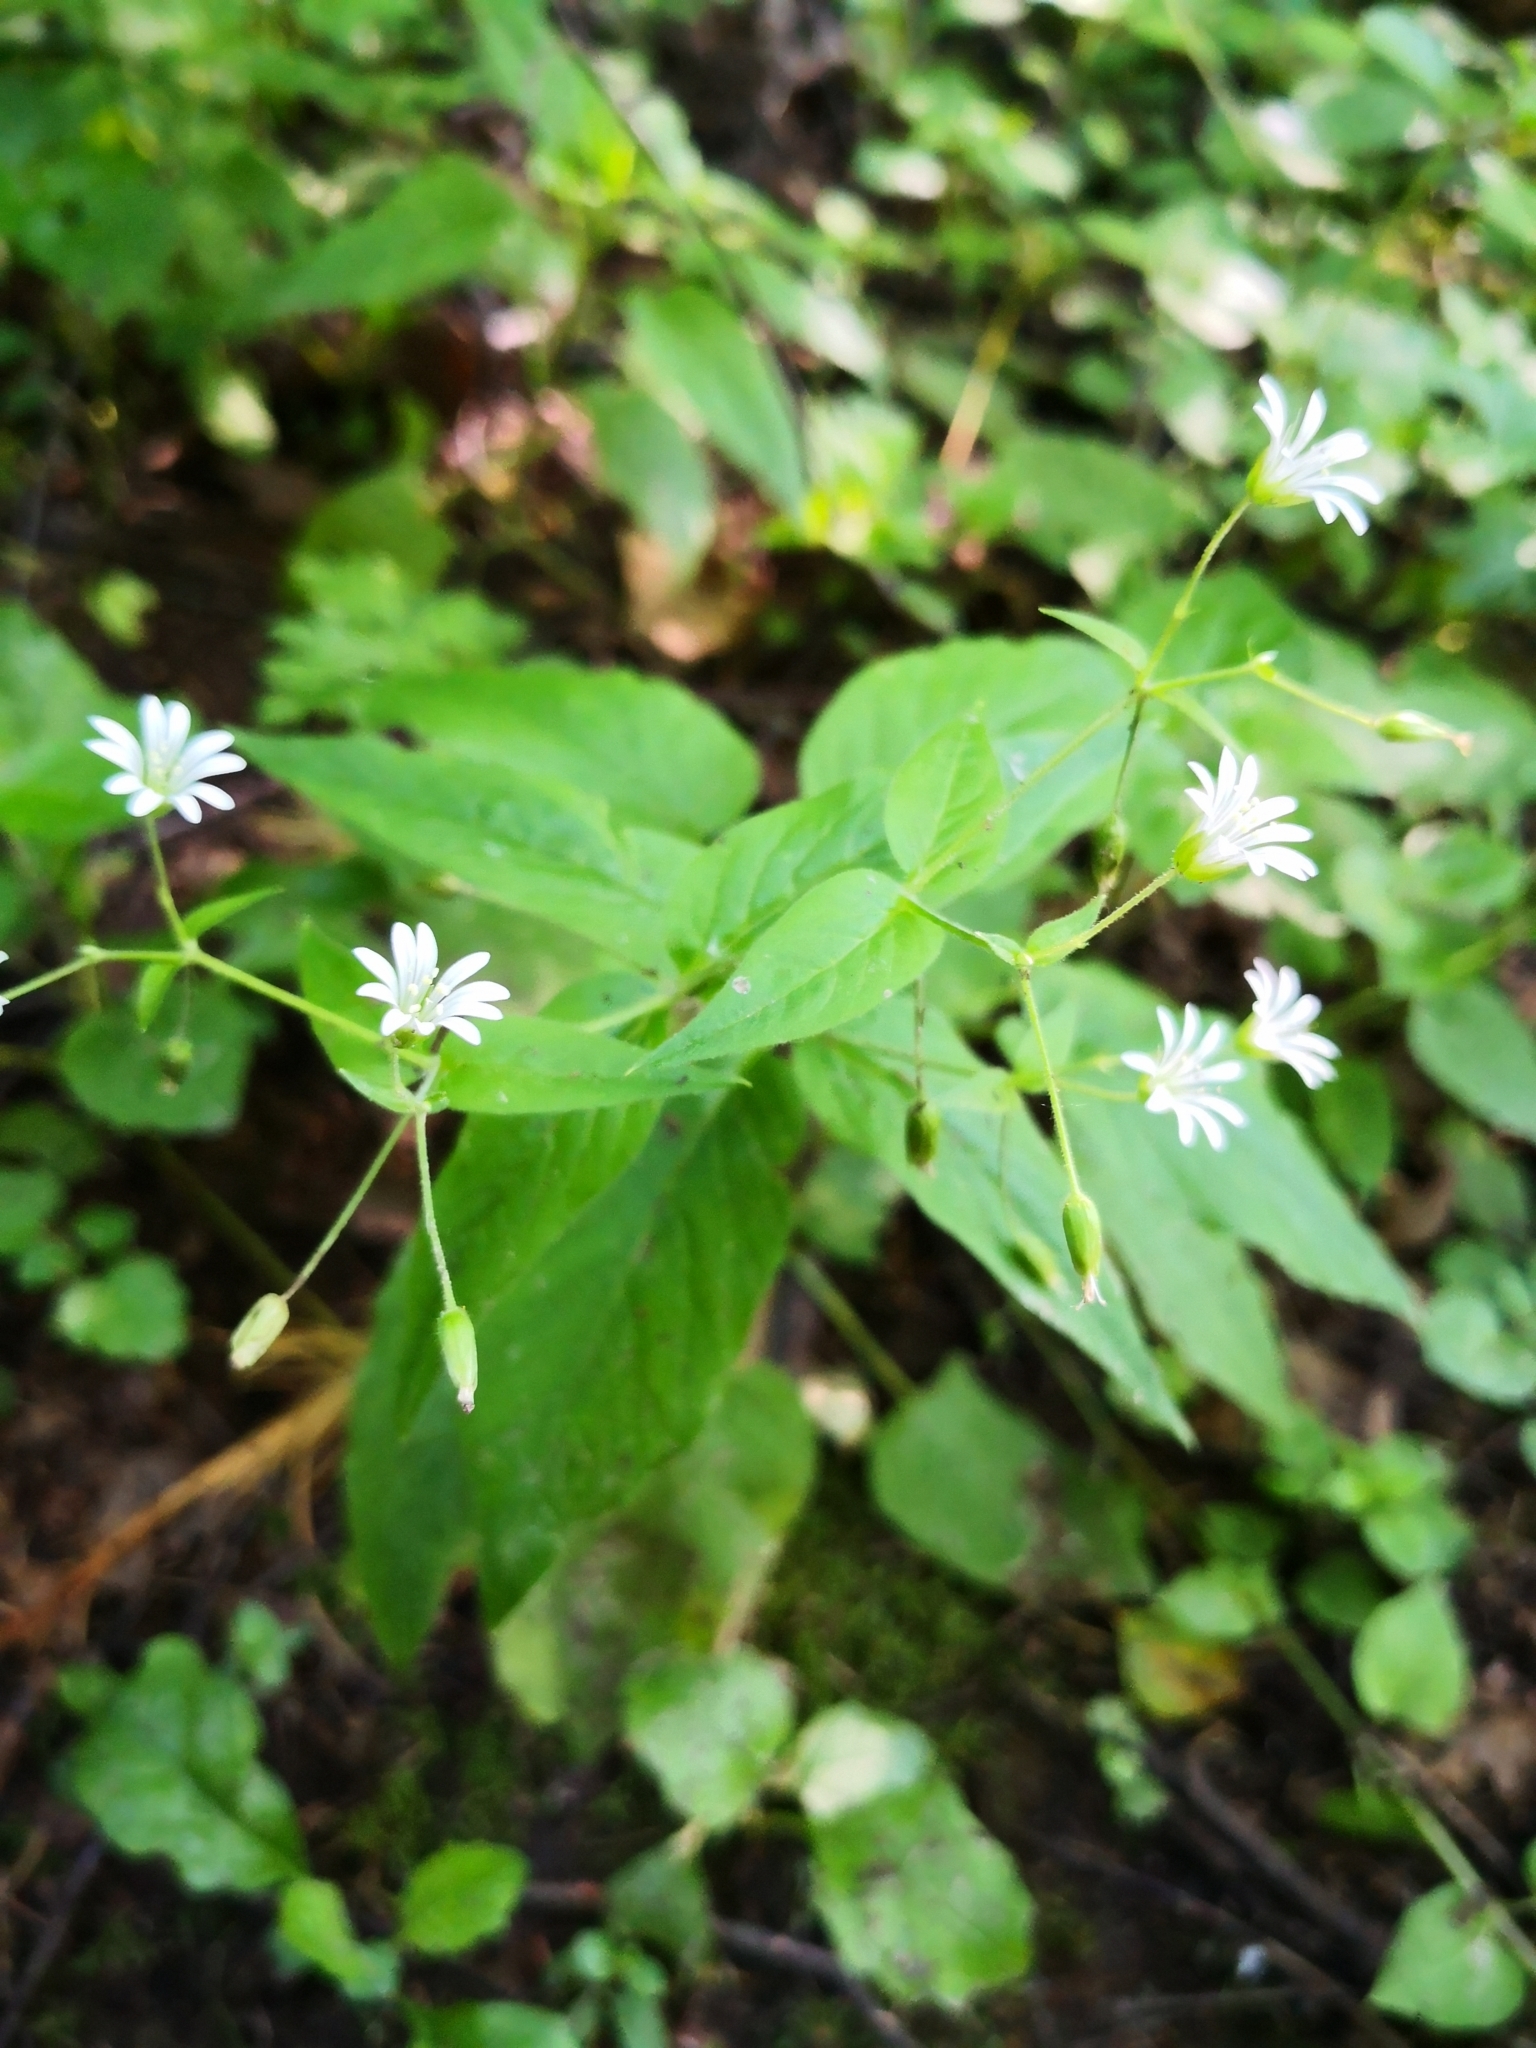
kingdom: Plantae
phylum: Tracheophyta
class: Magnoliopsida
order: Caryophyllales
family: Caryophyllaceae
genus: Stellaria
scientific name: Stellaria nemorum
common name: Wood stitchwort
